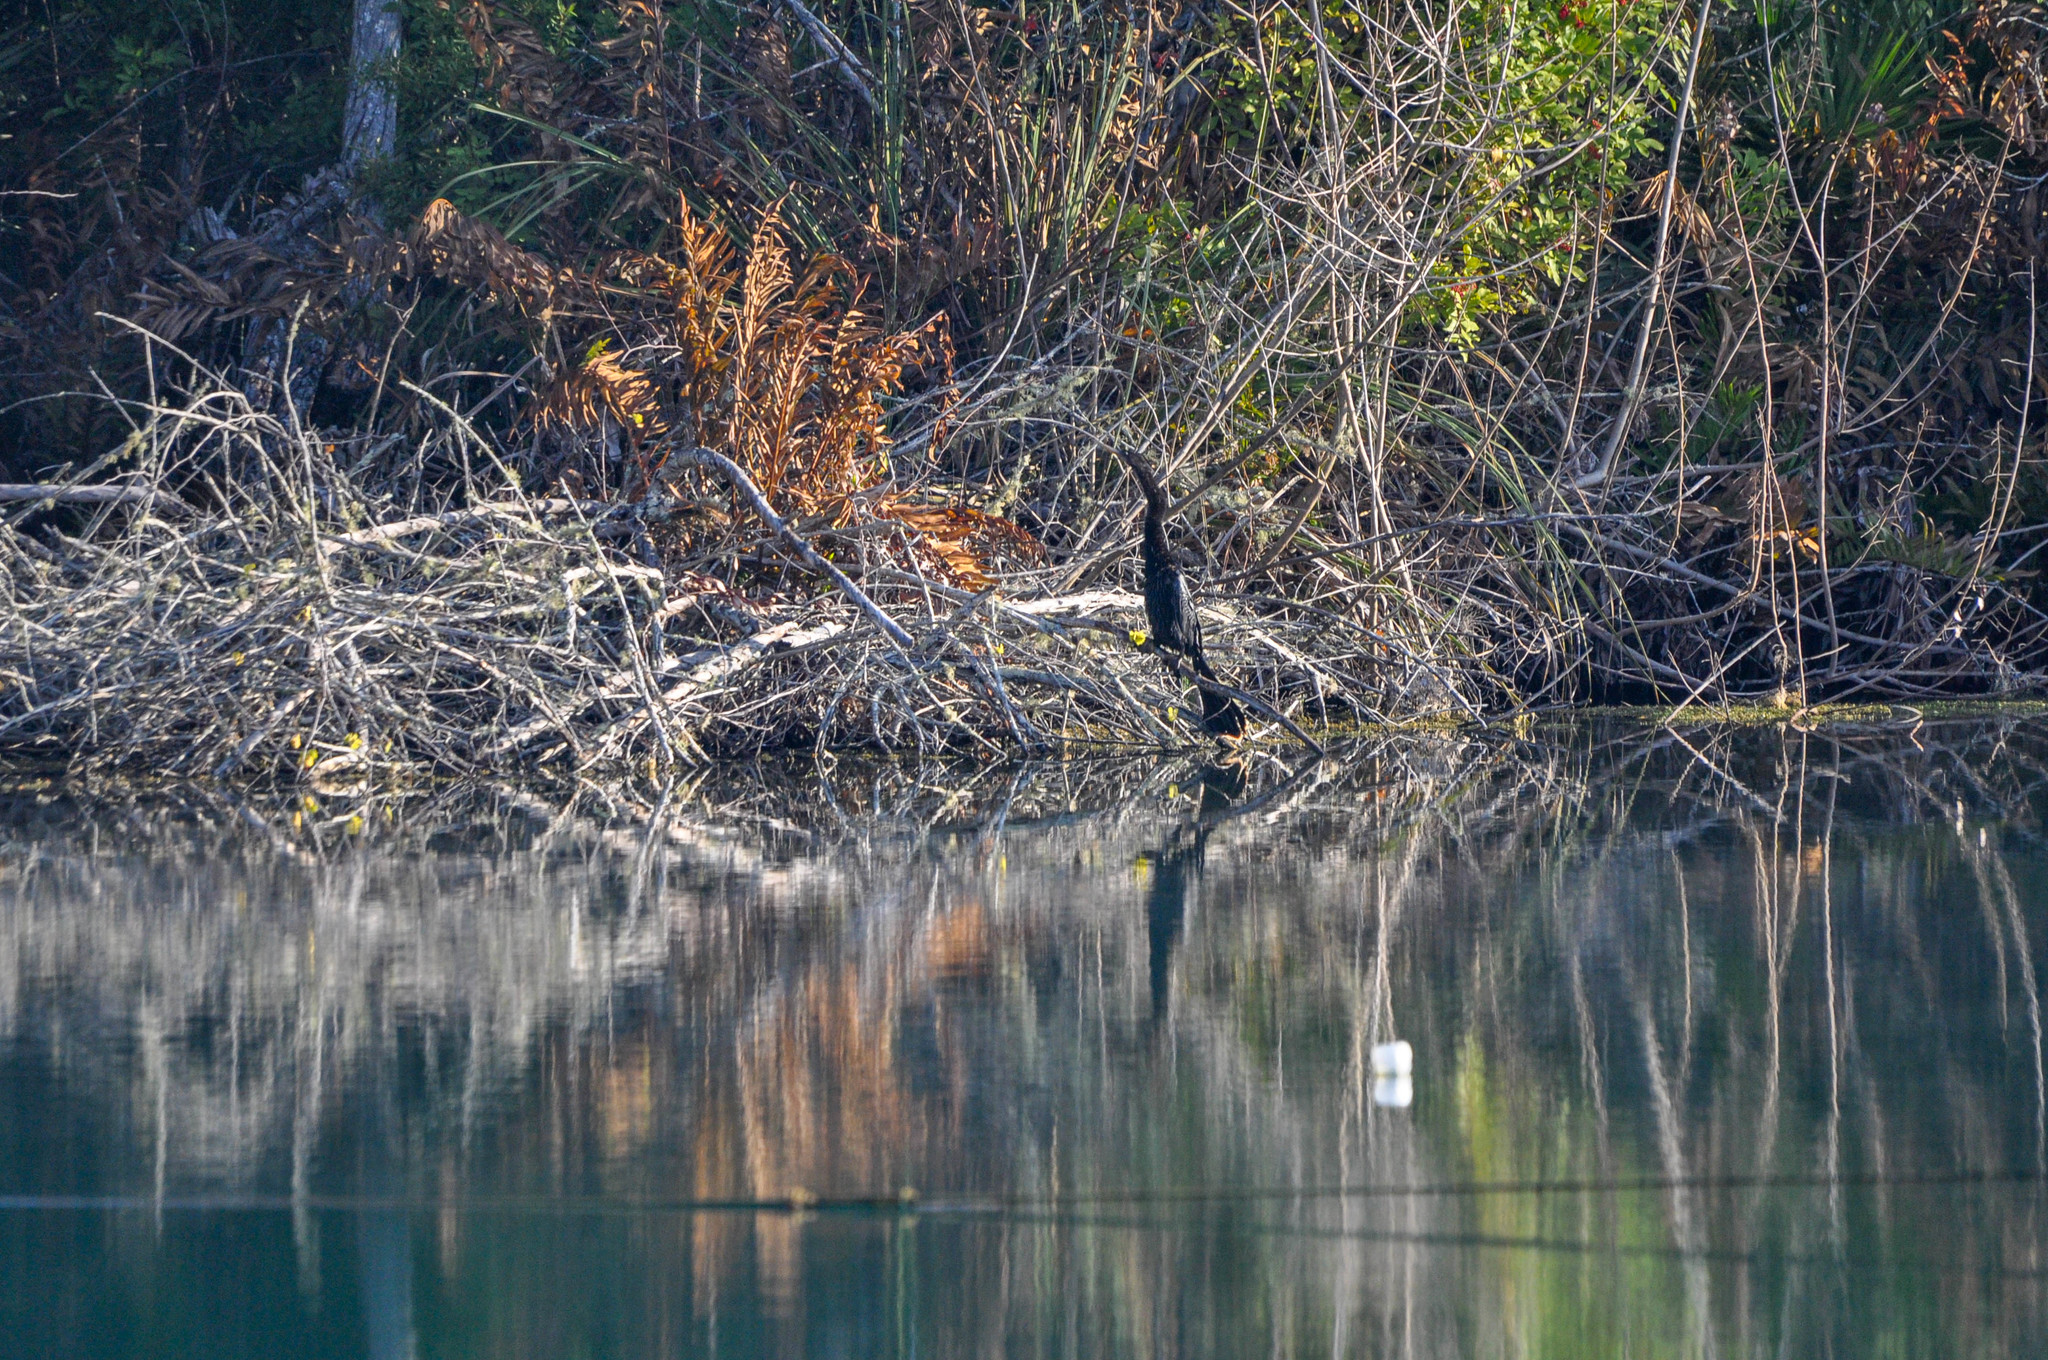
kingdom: Animalia
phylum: Chordata
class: Aves
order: Suliformes
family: Anhingidae
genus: Anhinga
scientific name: Anhinga anhinga
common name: Anhinga
